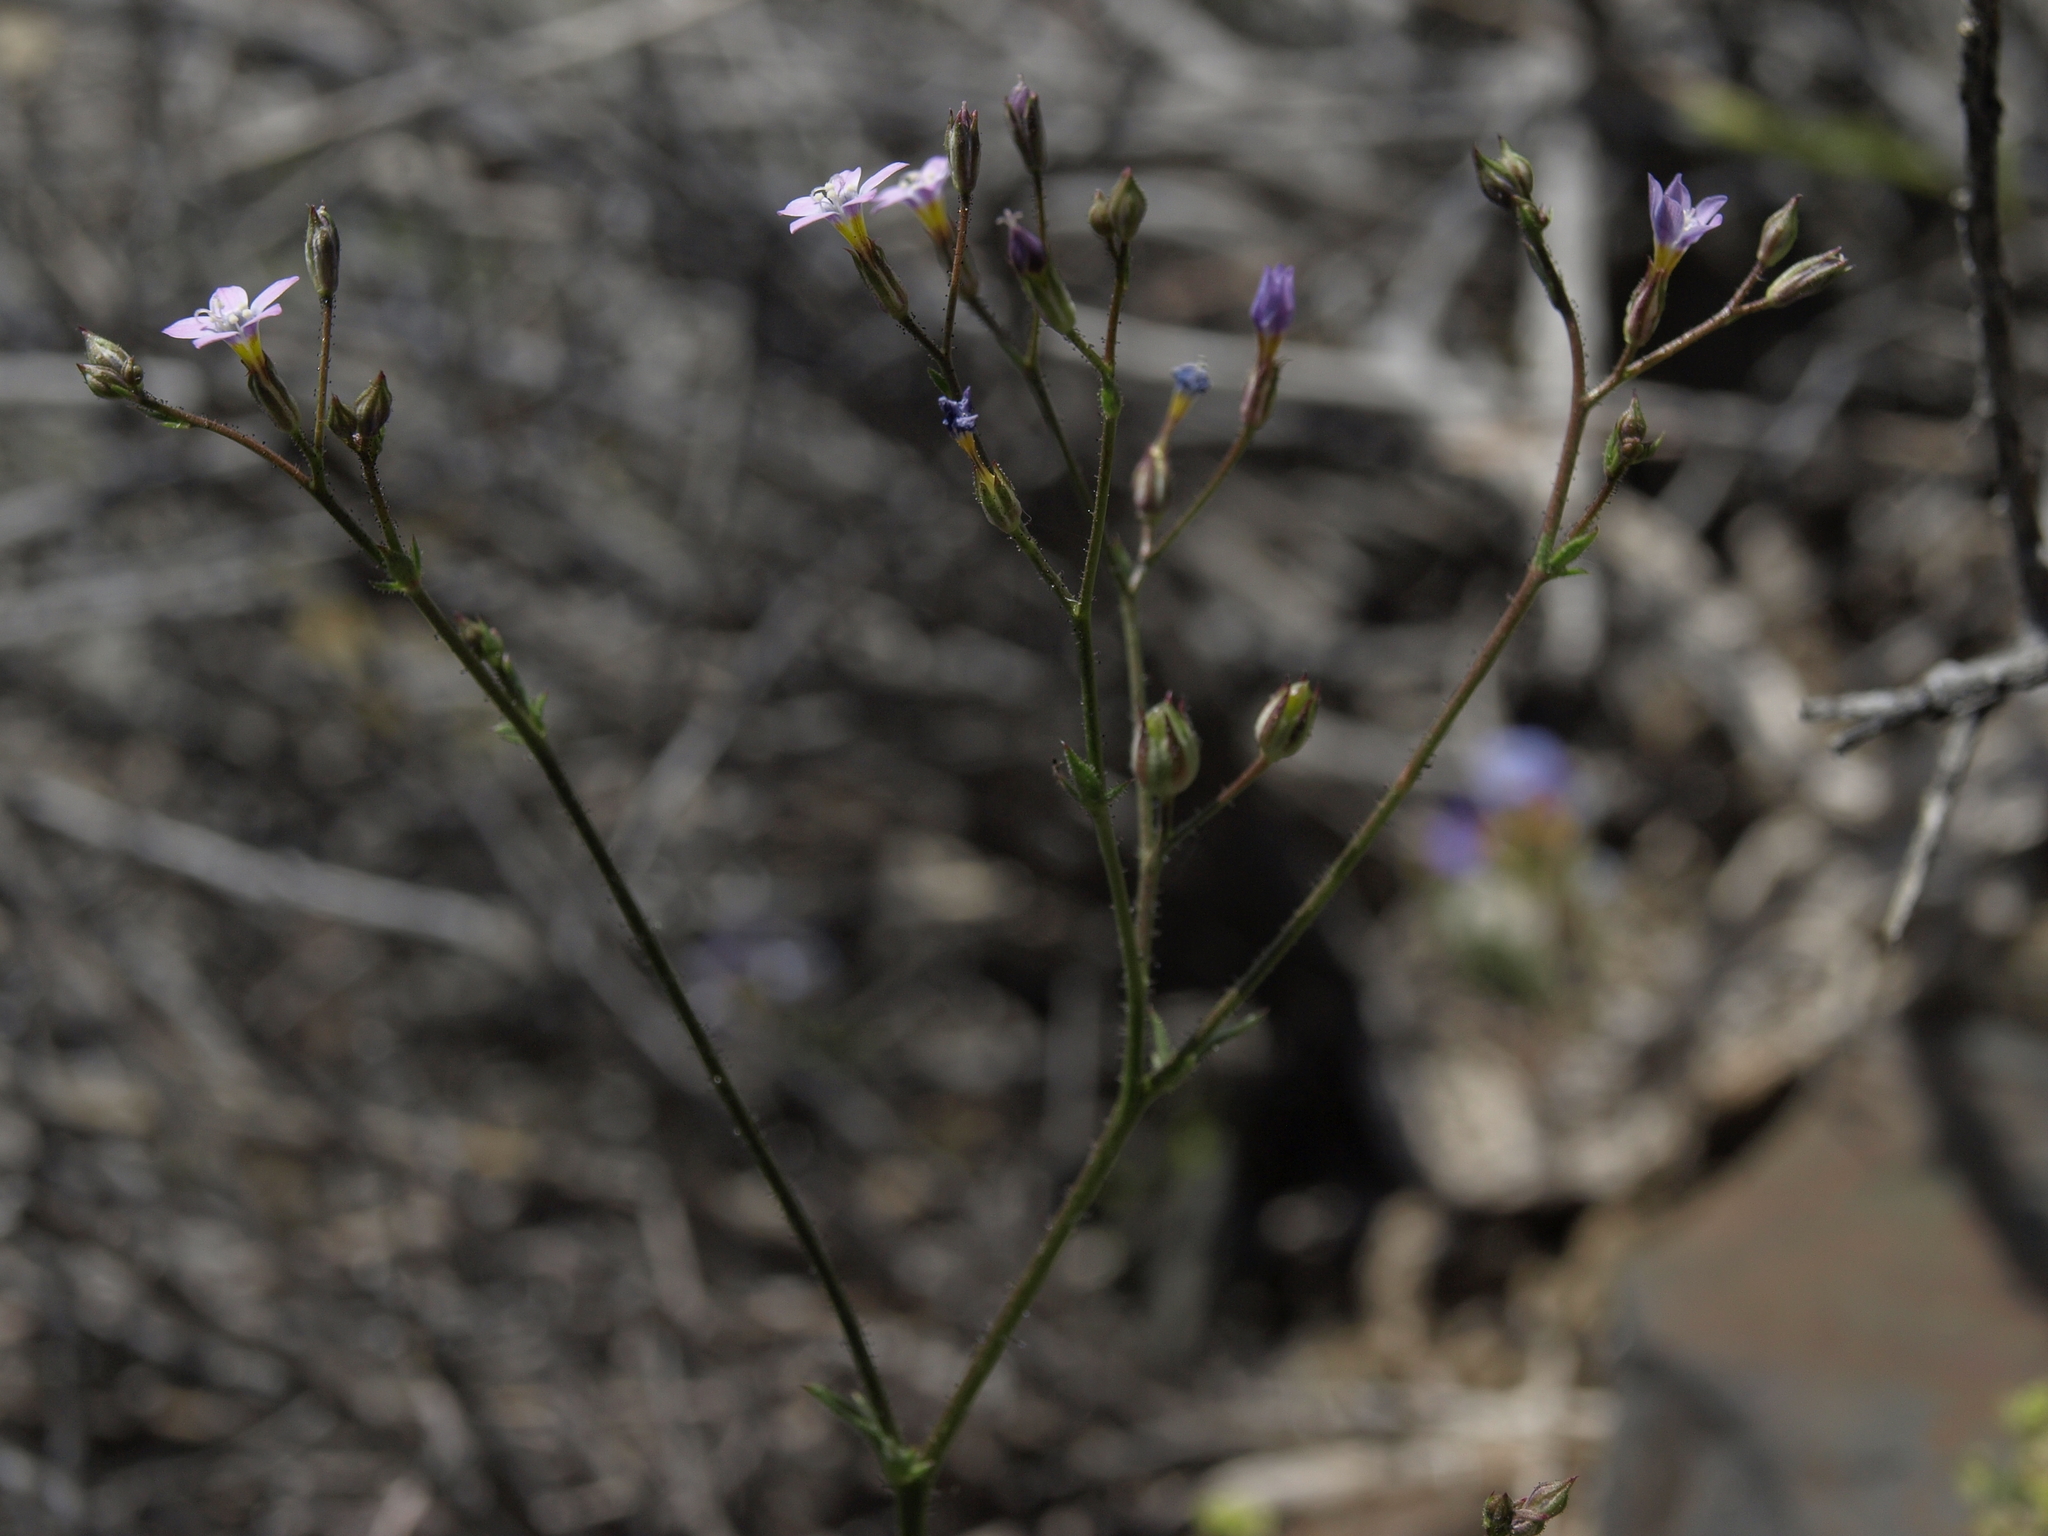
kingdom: Plantae
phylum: Tracheophyta
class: Magnoliopsida
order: Ericales
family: Polemoniaceae
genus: Gilia
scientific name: Gilia ophthalmoides
